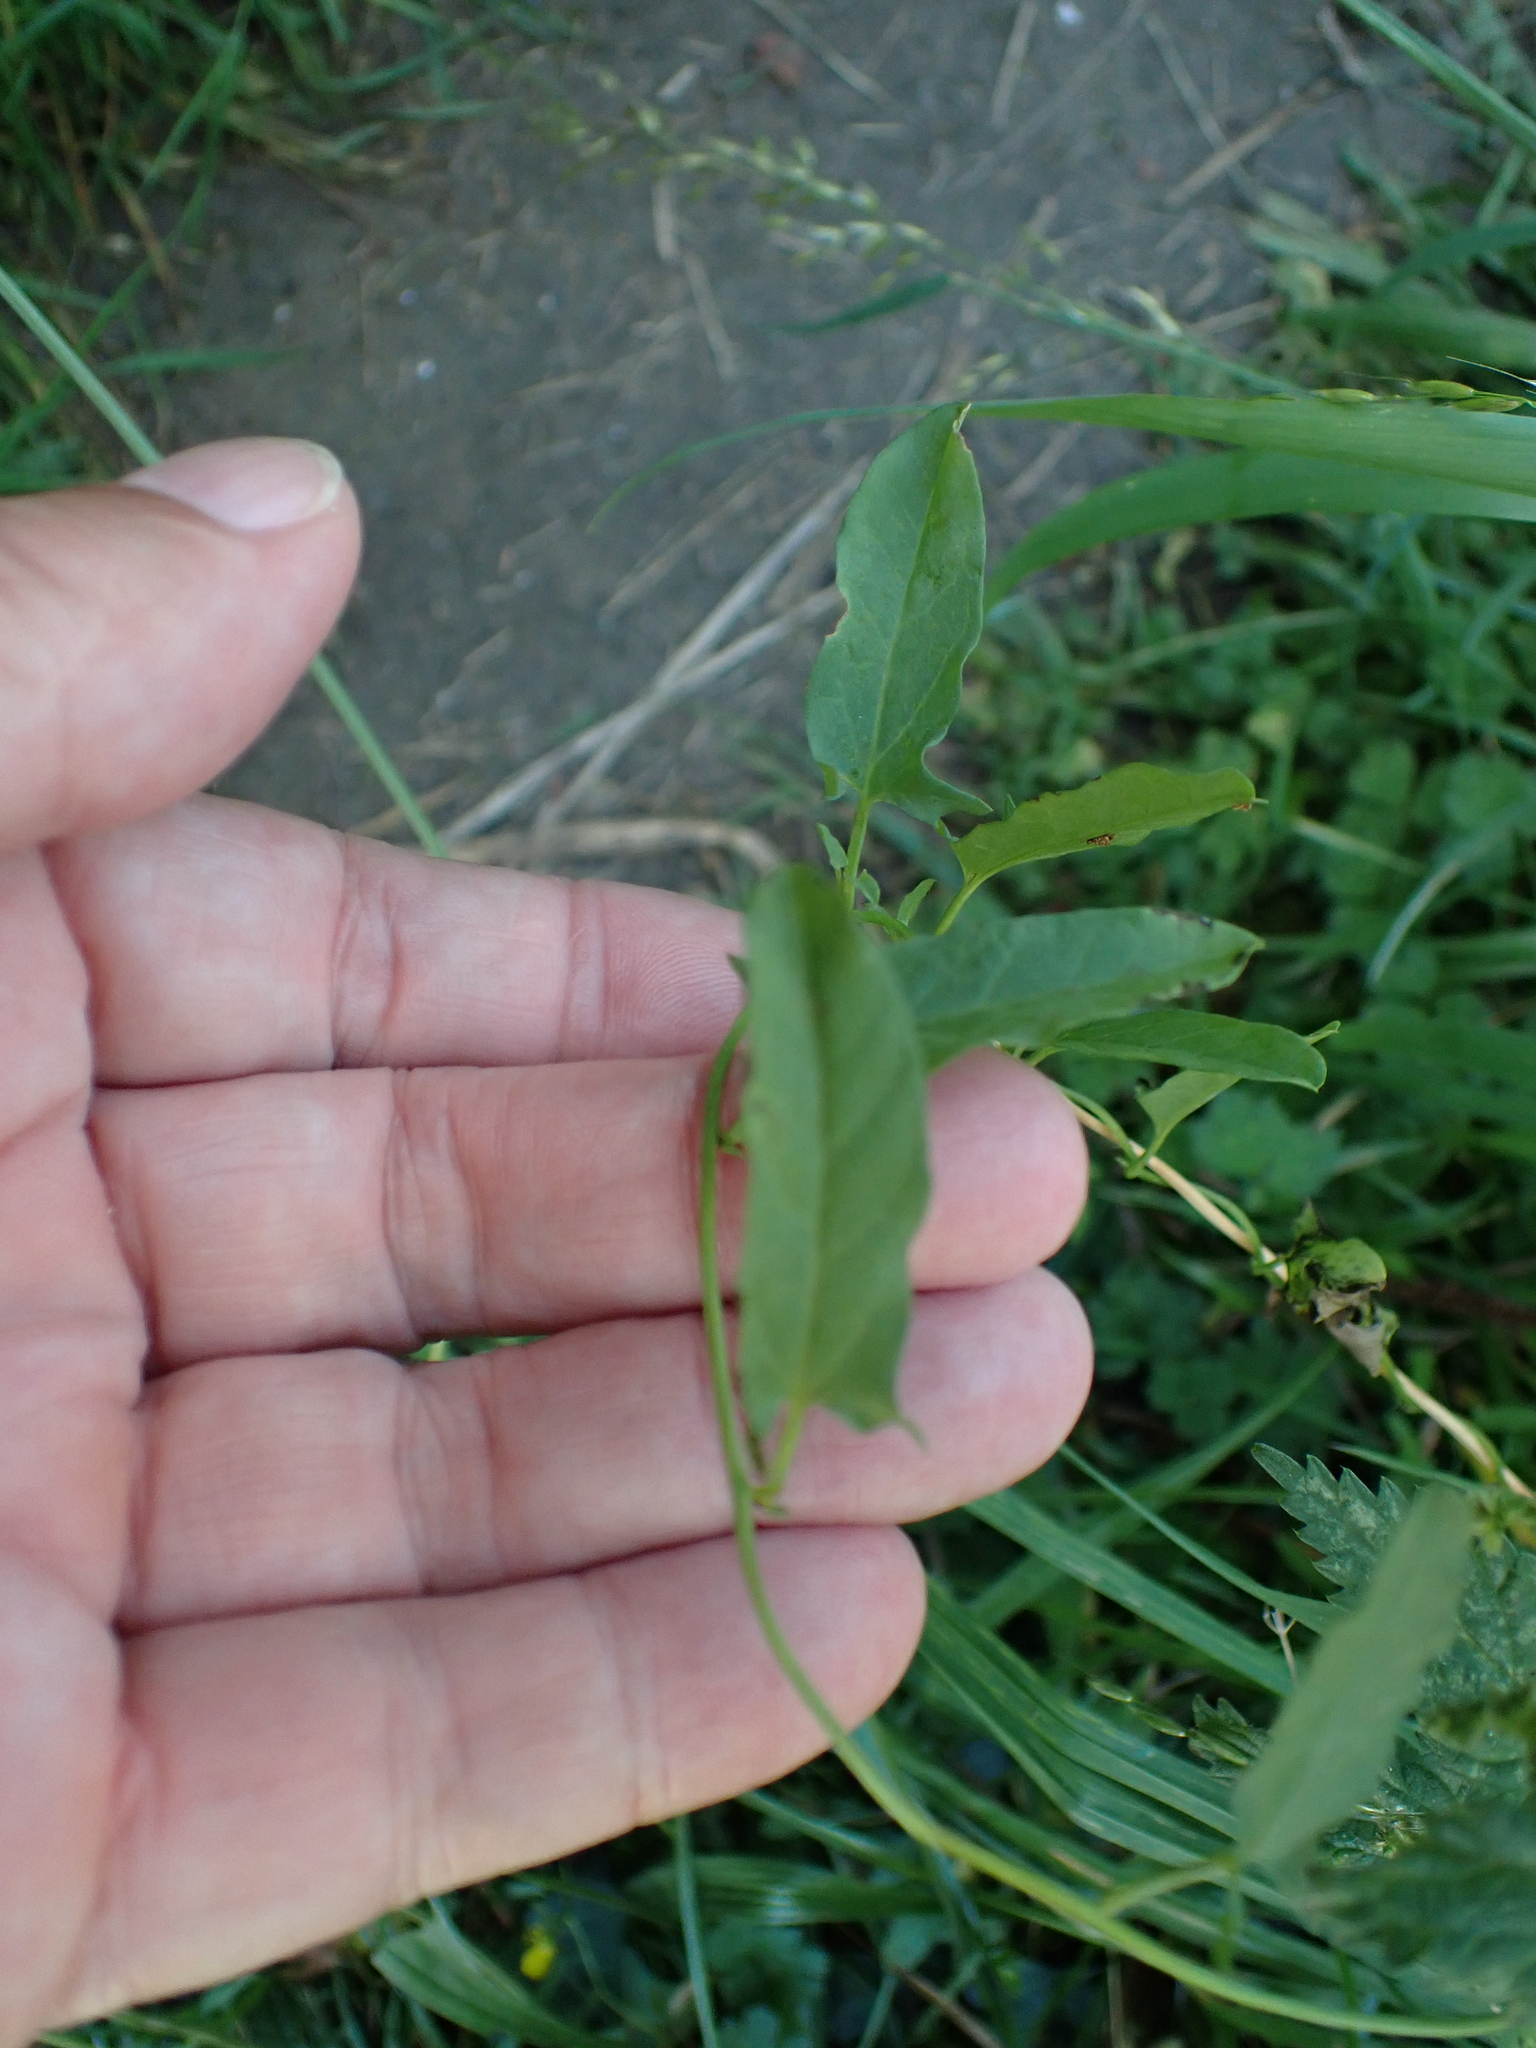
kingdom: Plantae
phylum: Tracheophyta
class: Magnoliopsida
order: Solanales
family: Convolvulaceae
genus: Convolvulus
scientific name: Convolvulus arvensis
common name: Field bindweed
